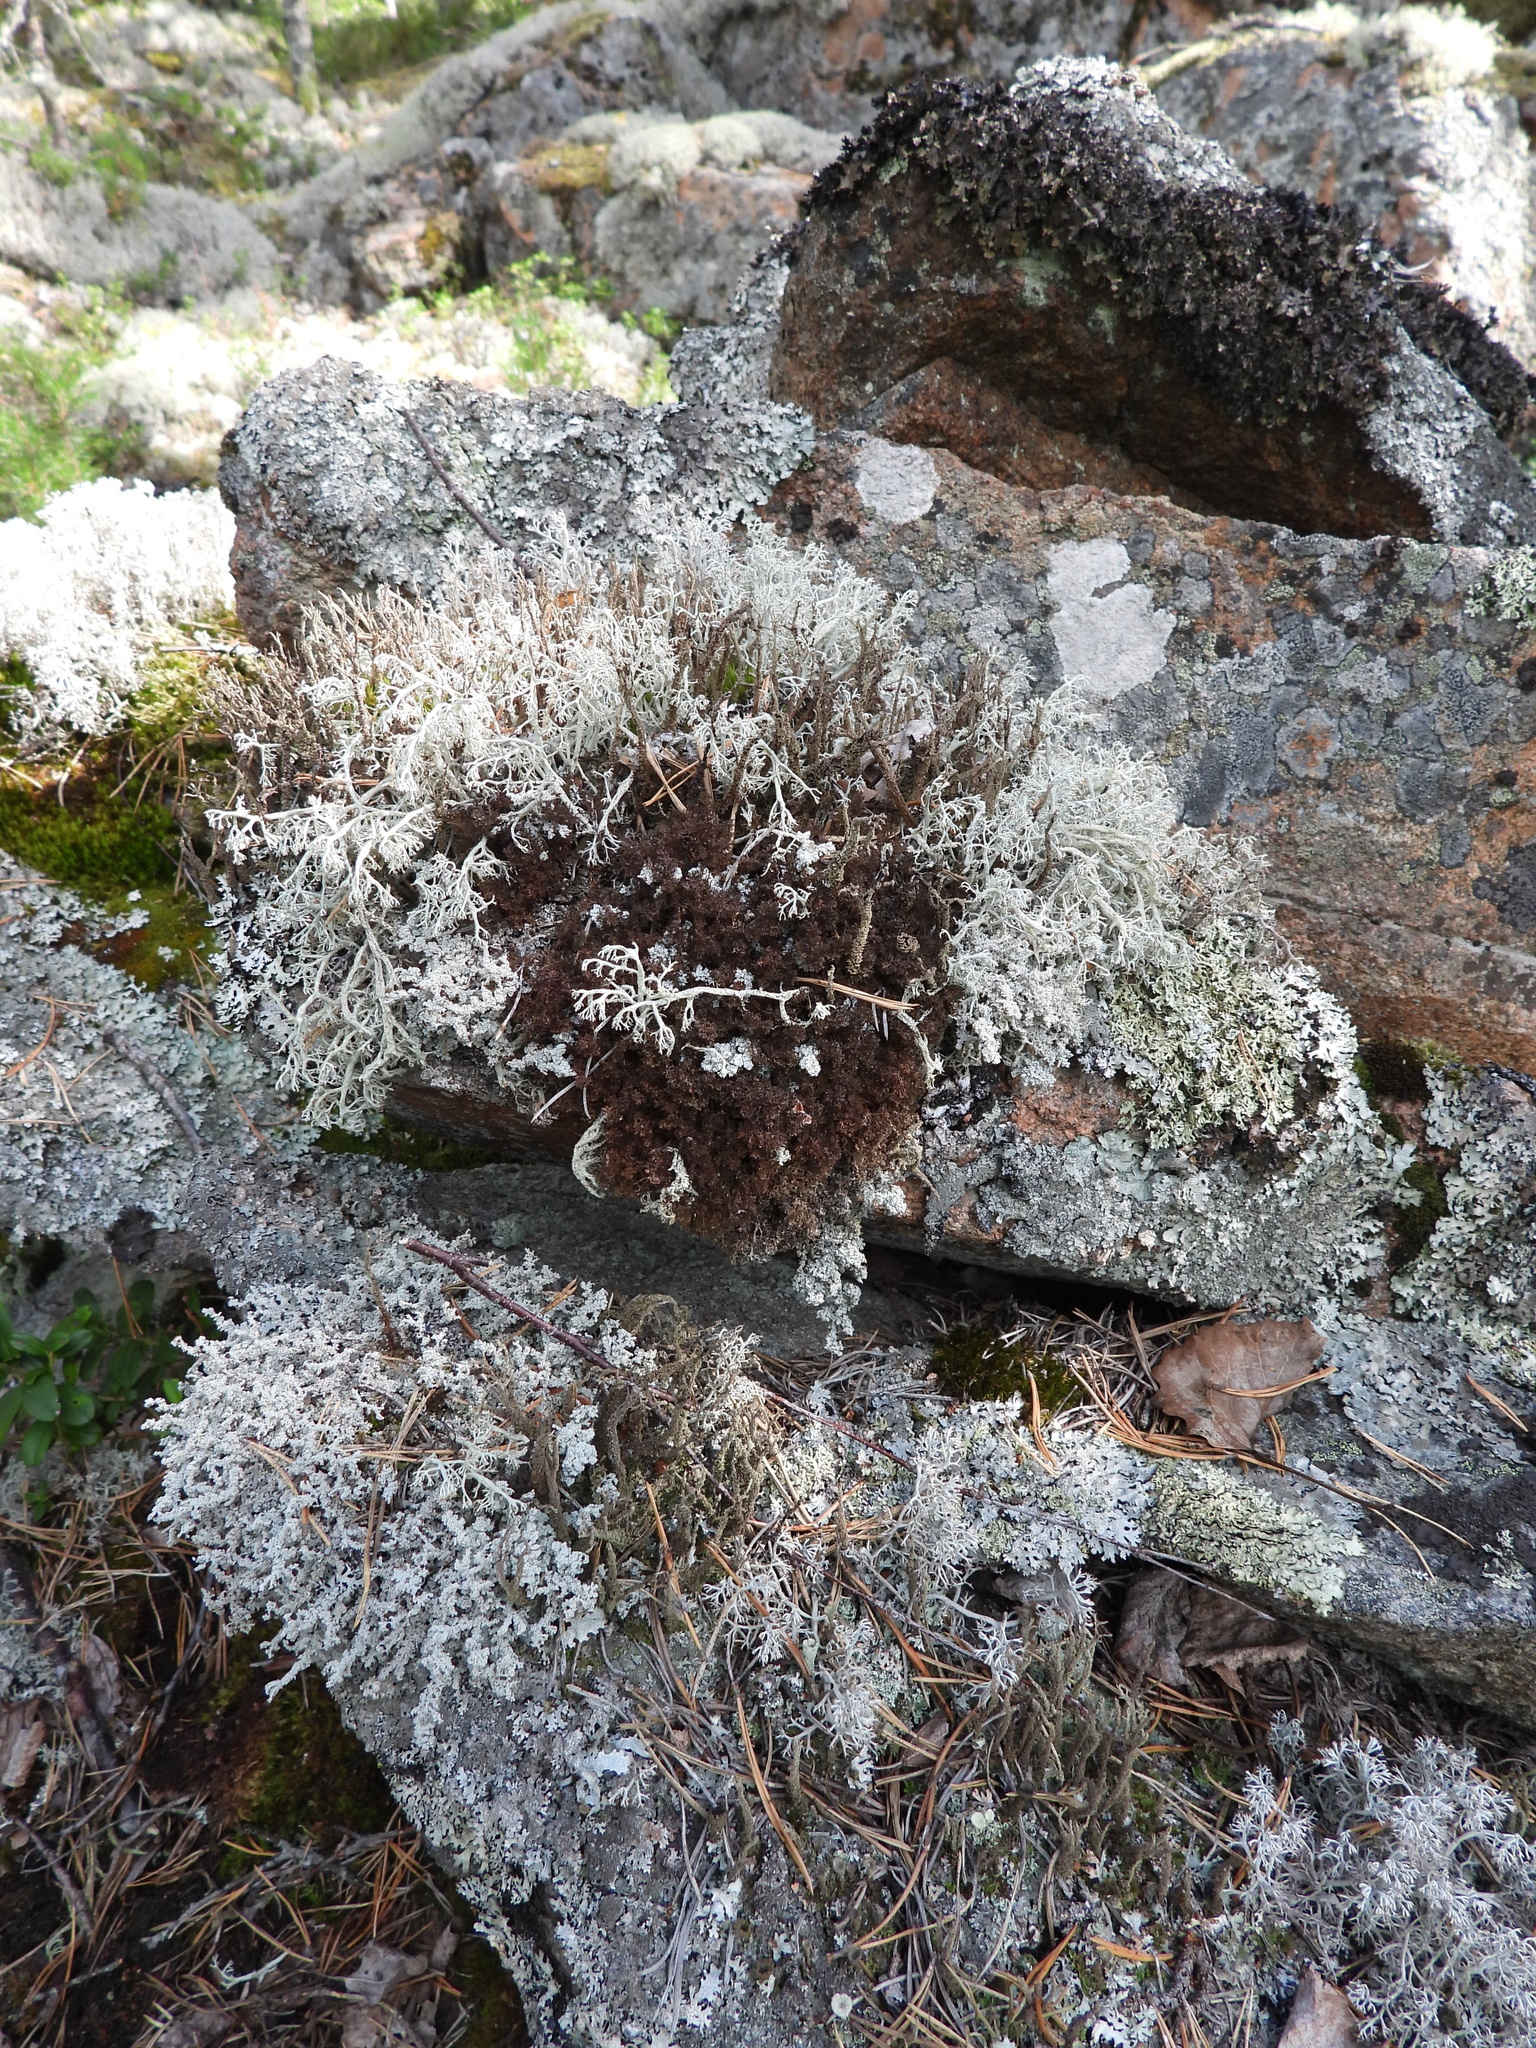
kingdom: Fungi
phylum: Ascomycota
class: Lecanoromycetes
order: Lecanorales
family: Parmeliaceae
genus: Cetraria
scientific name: Cetraria odontella
